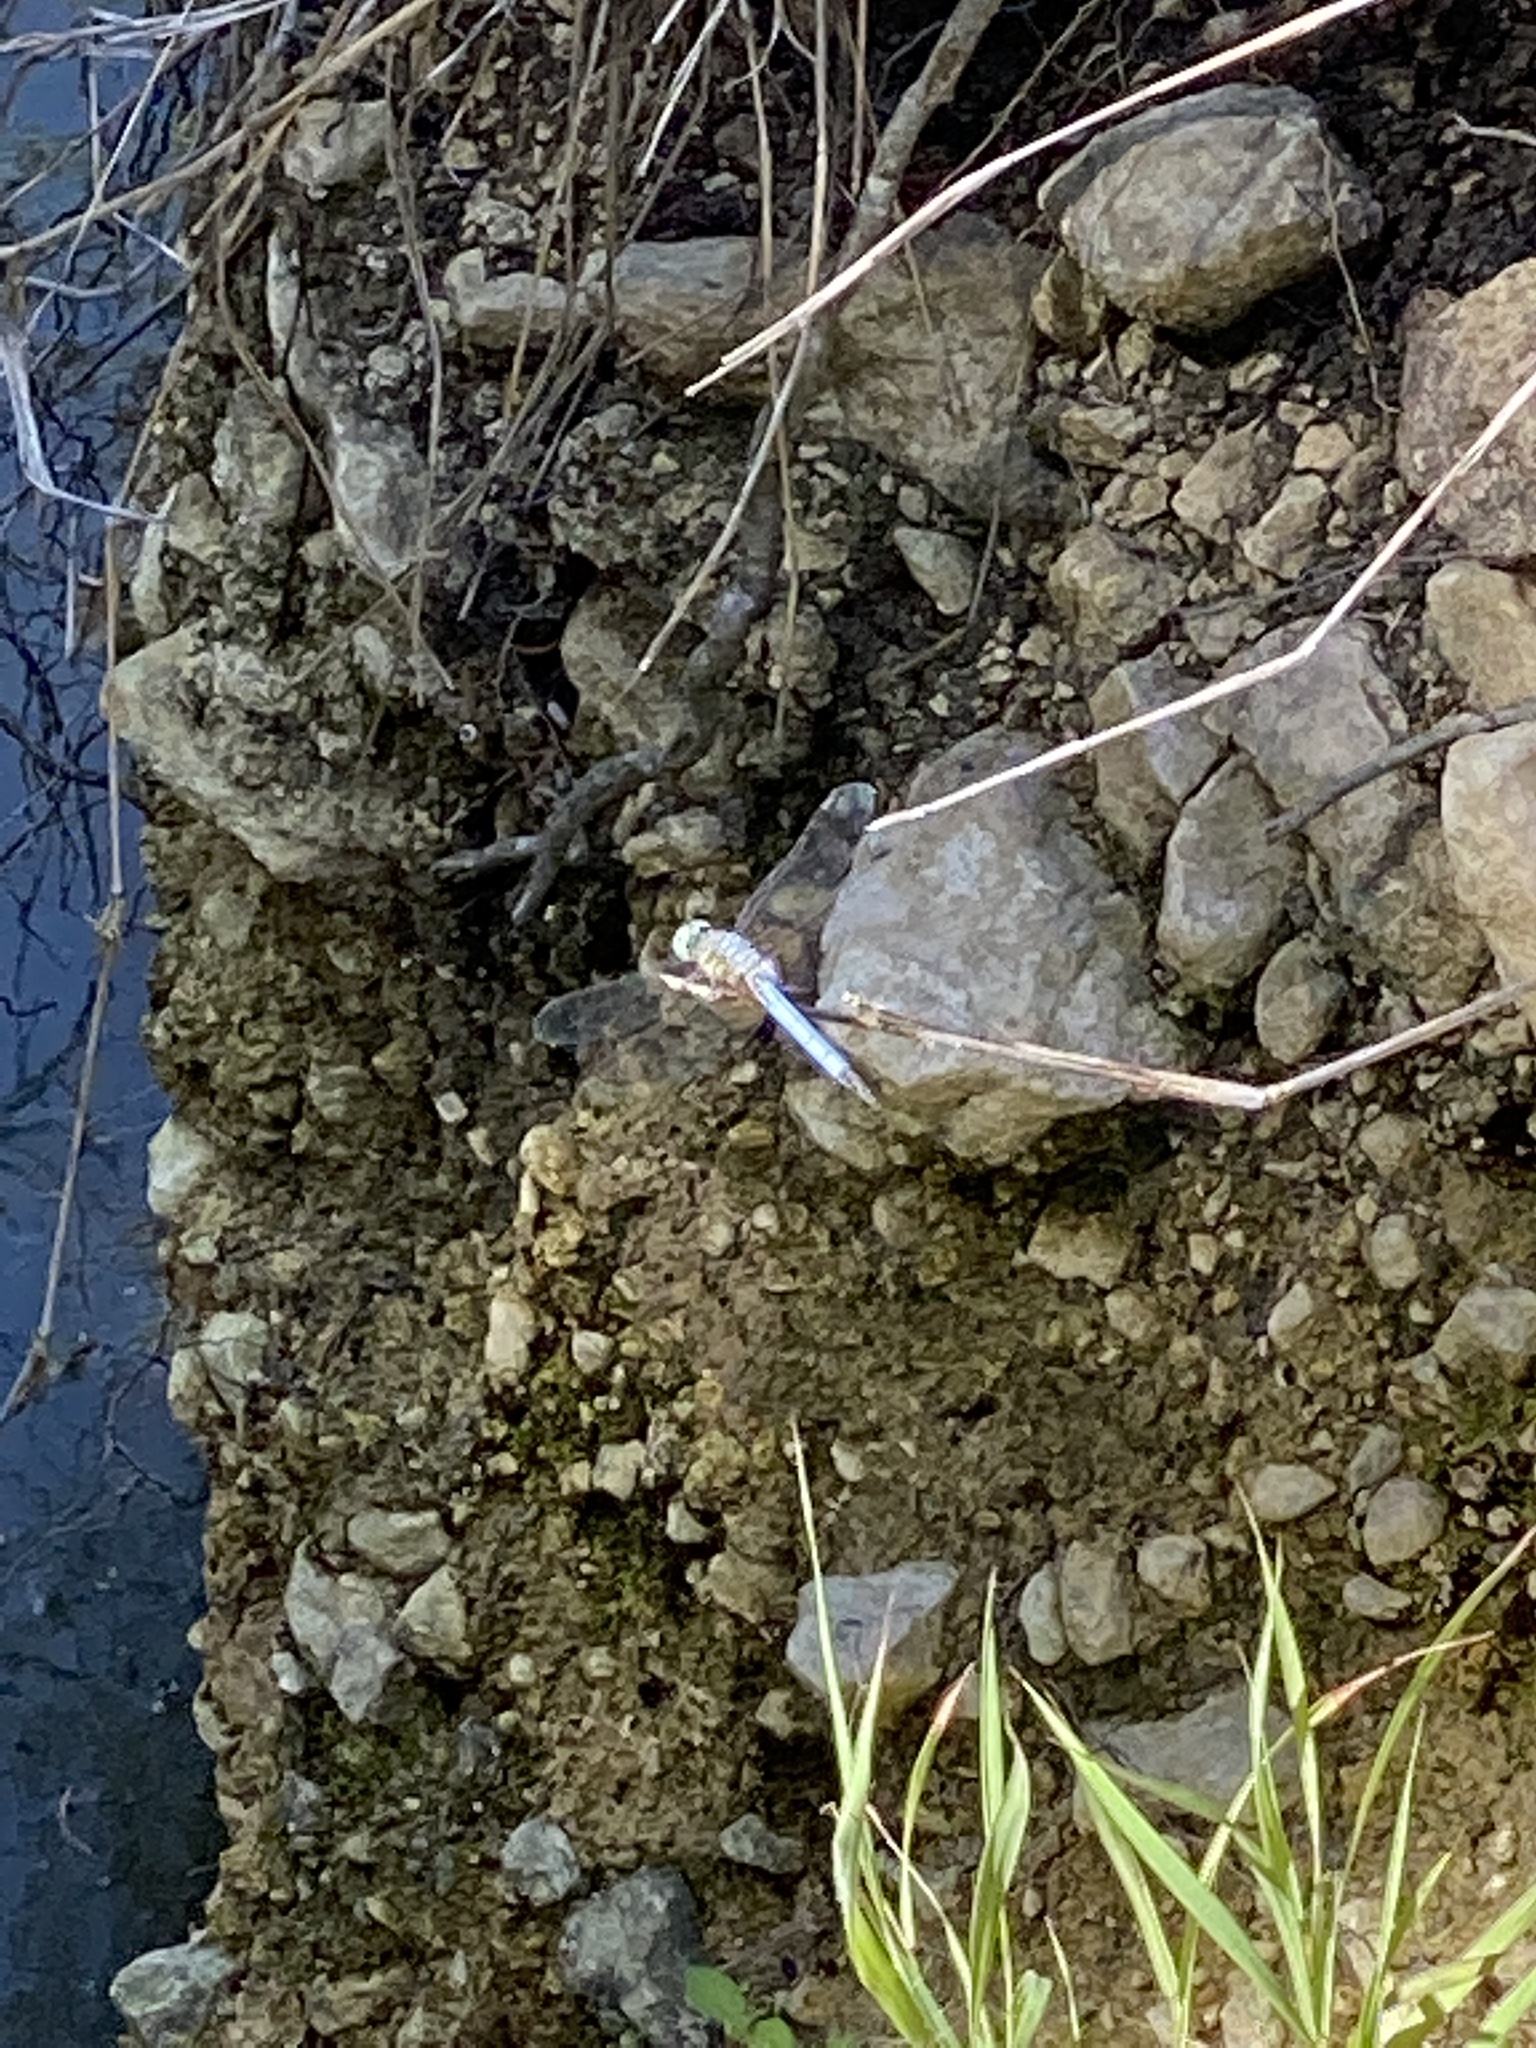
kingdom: Animalia
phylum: Arthropoda
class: Insecta
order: Odonata
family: Libellulidae
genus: Pachydiplax
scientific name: Pachydiplax longipennis
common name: Blue dasher
